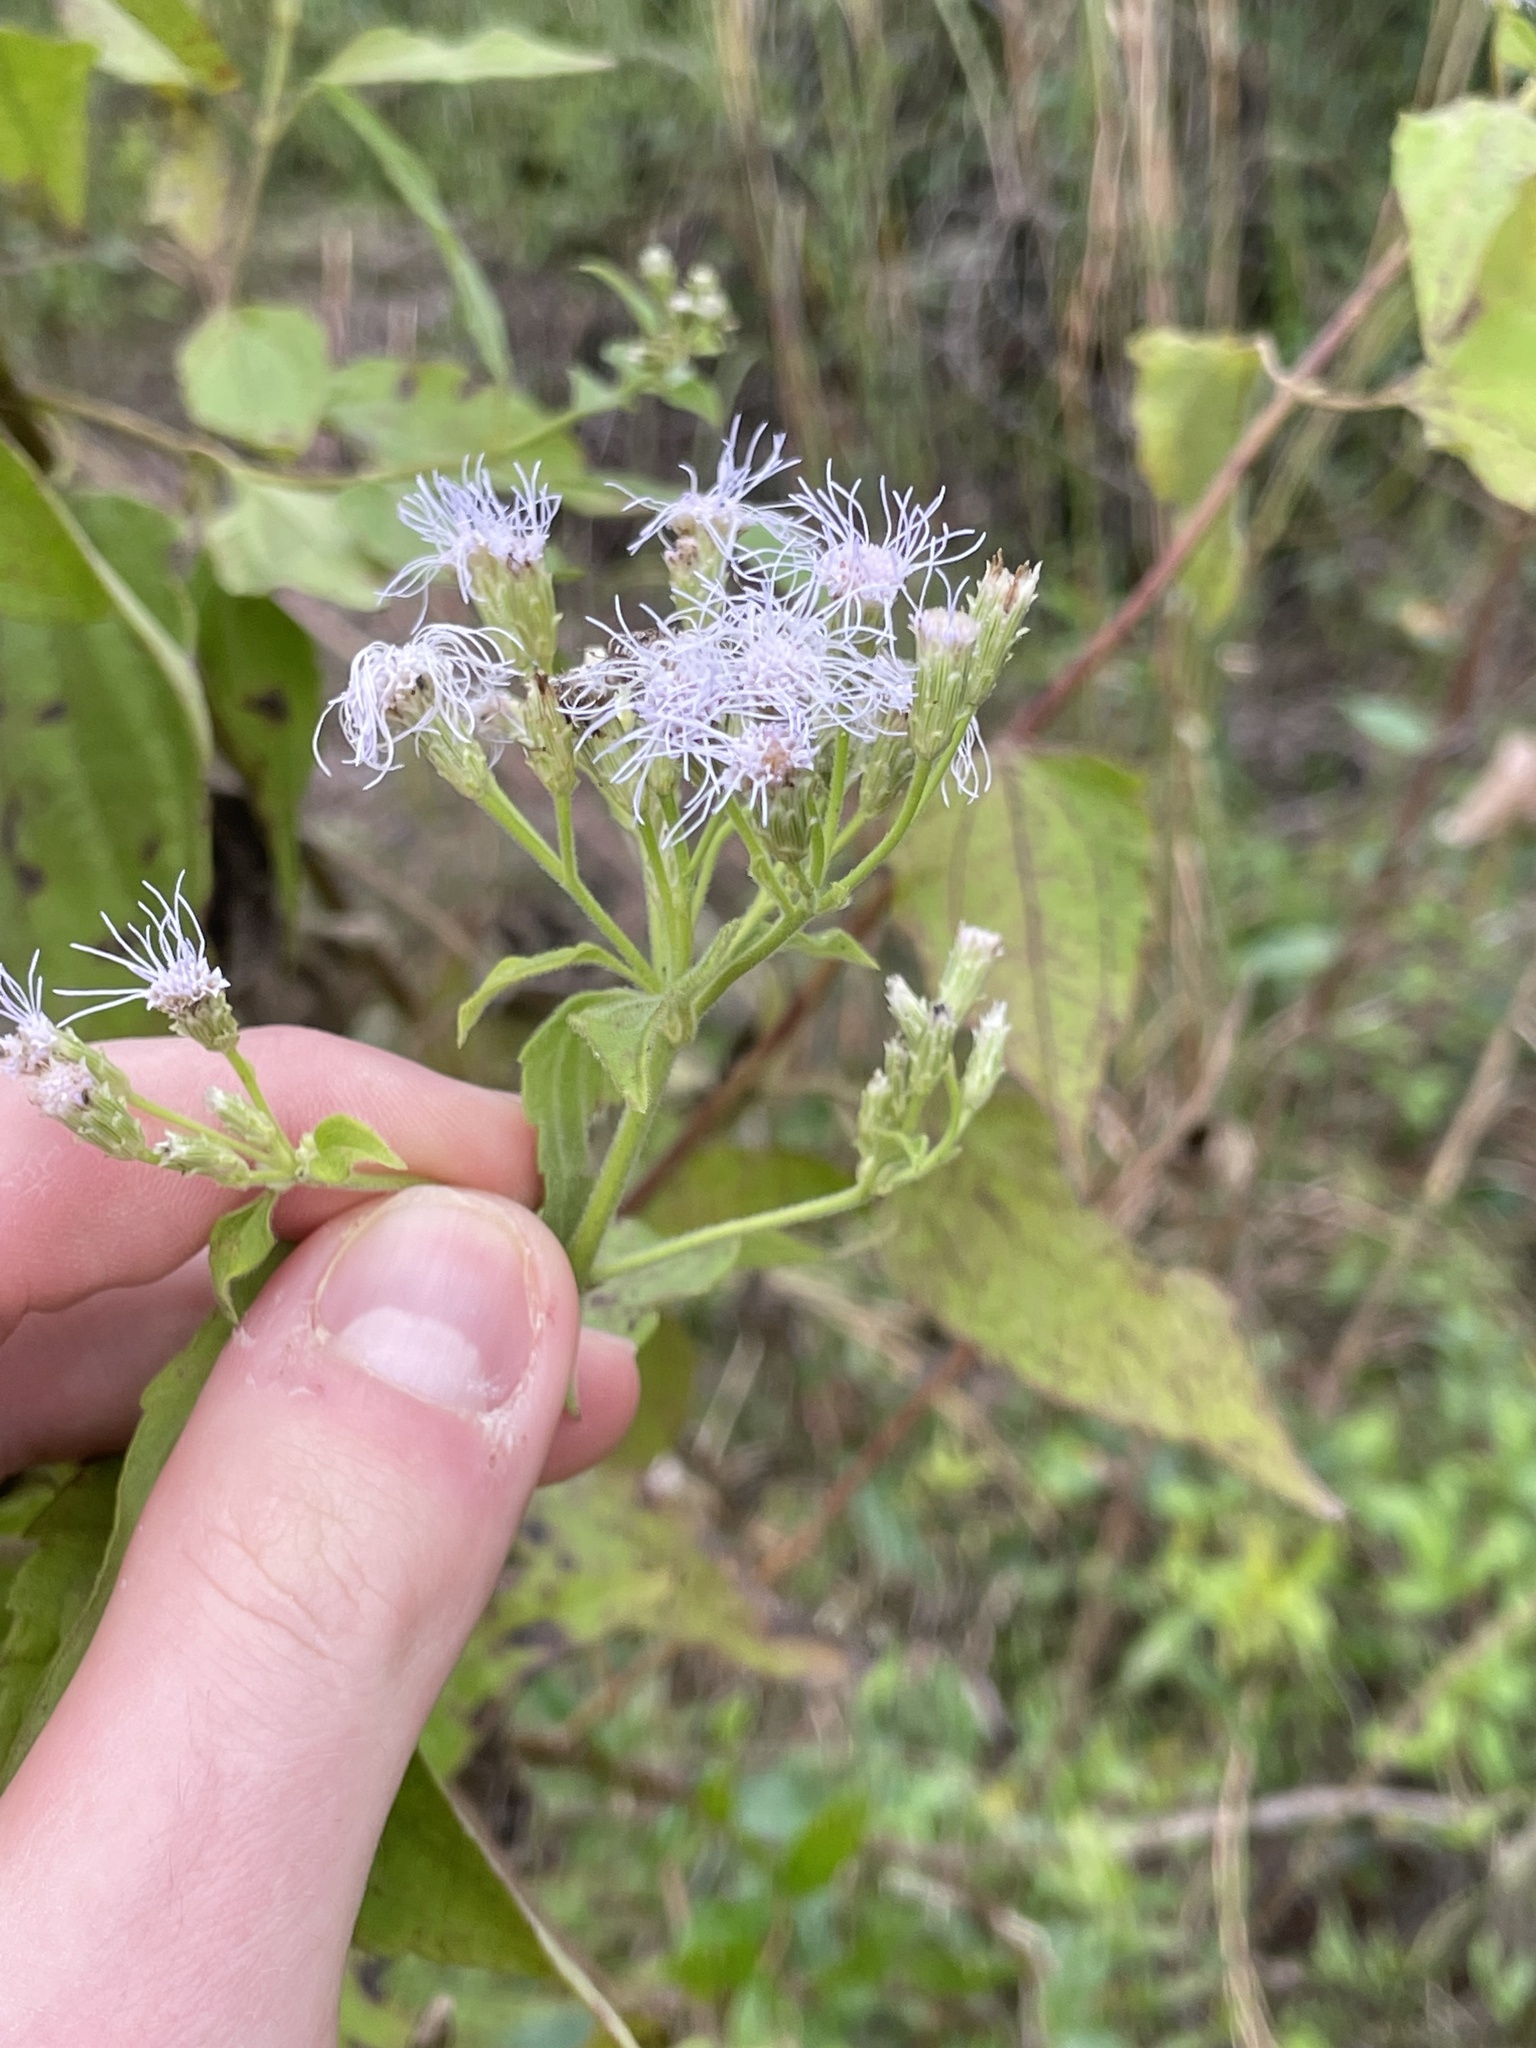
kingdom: Plantae
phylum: Tracheophyta
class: Magnoliopsida
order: Asterales
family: Asteraceae
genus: Chromolaena
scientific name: Chromolaena odorata
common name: Siamweed
